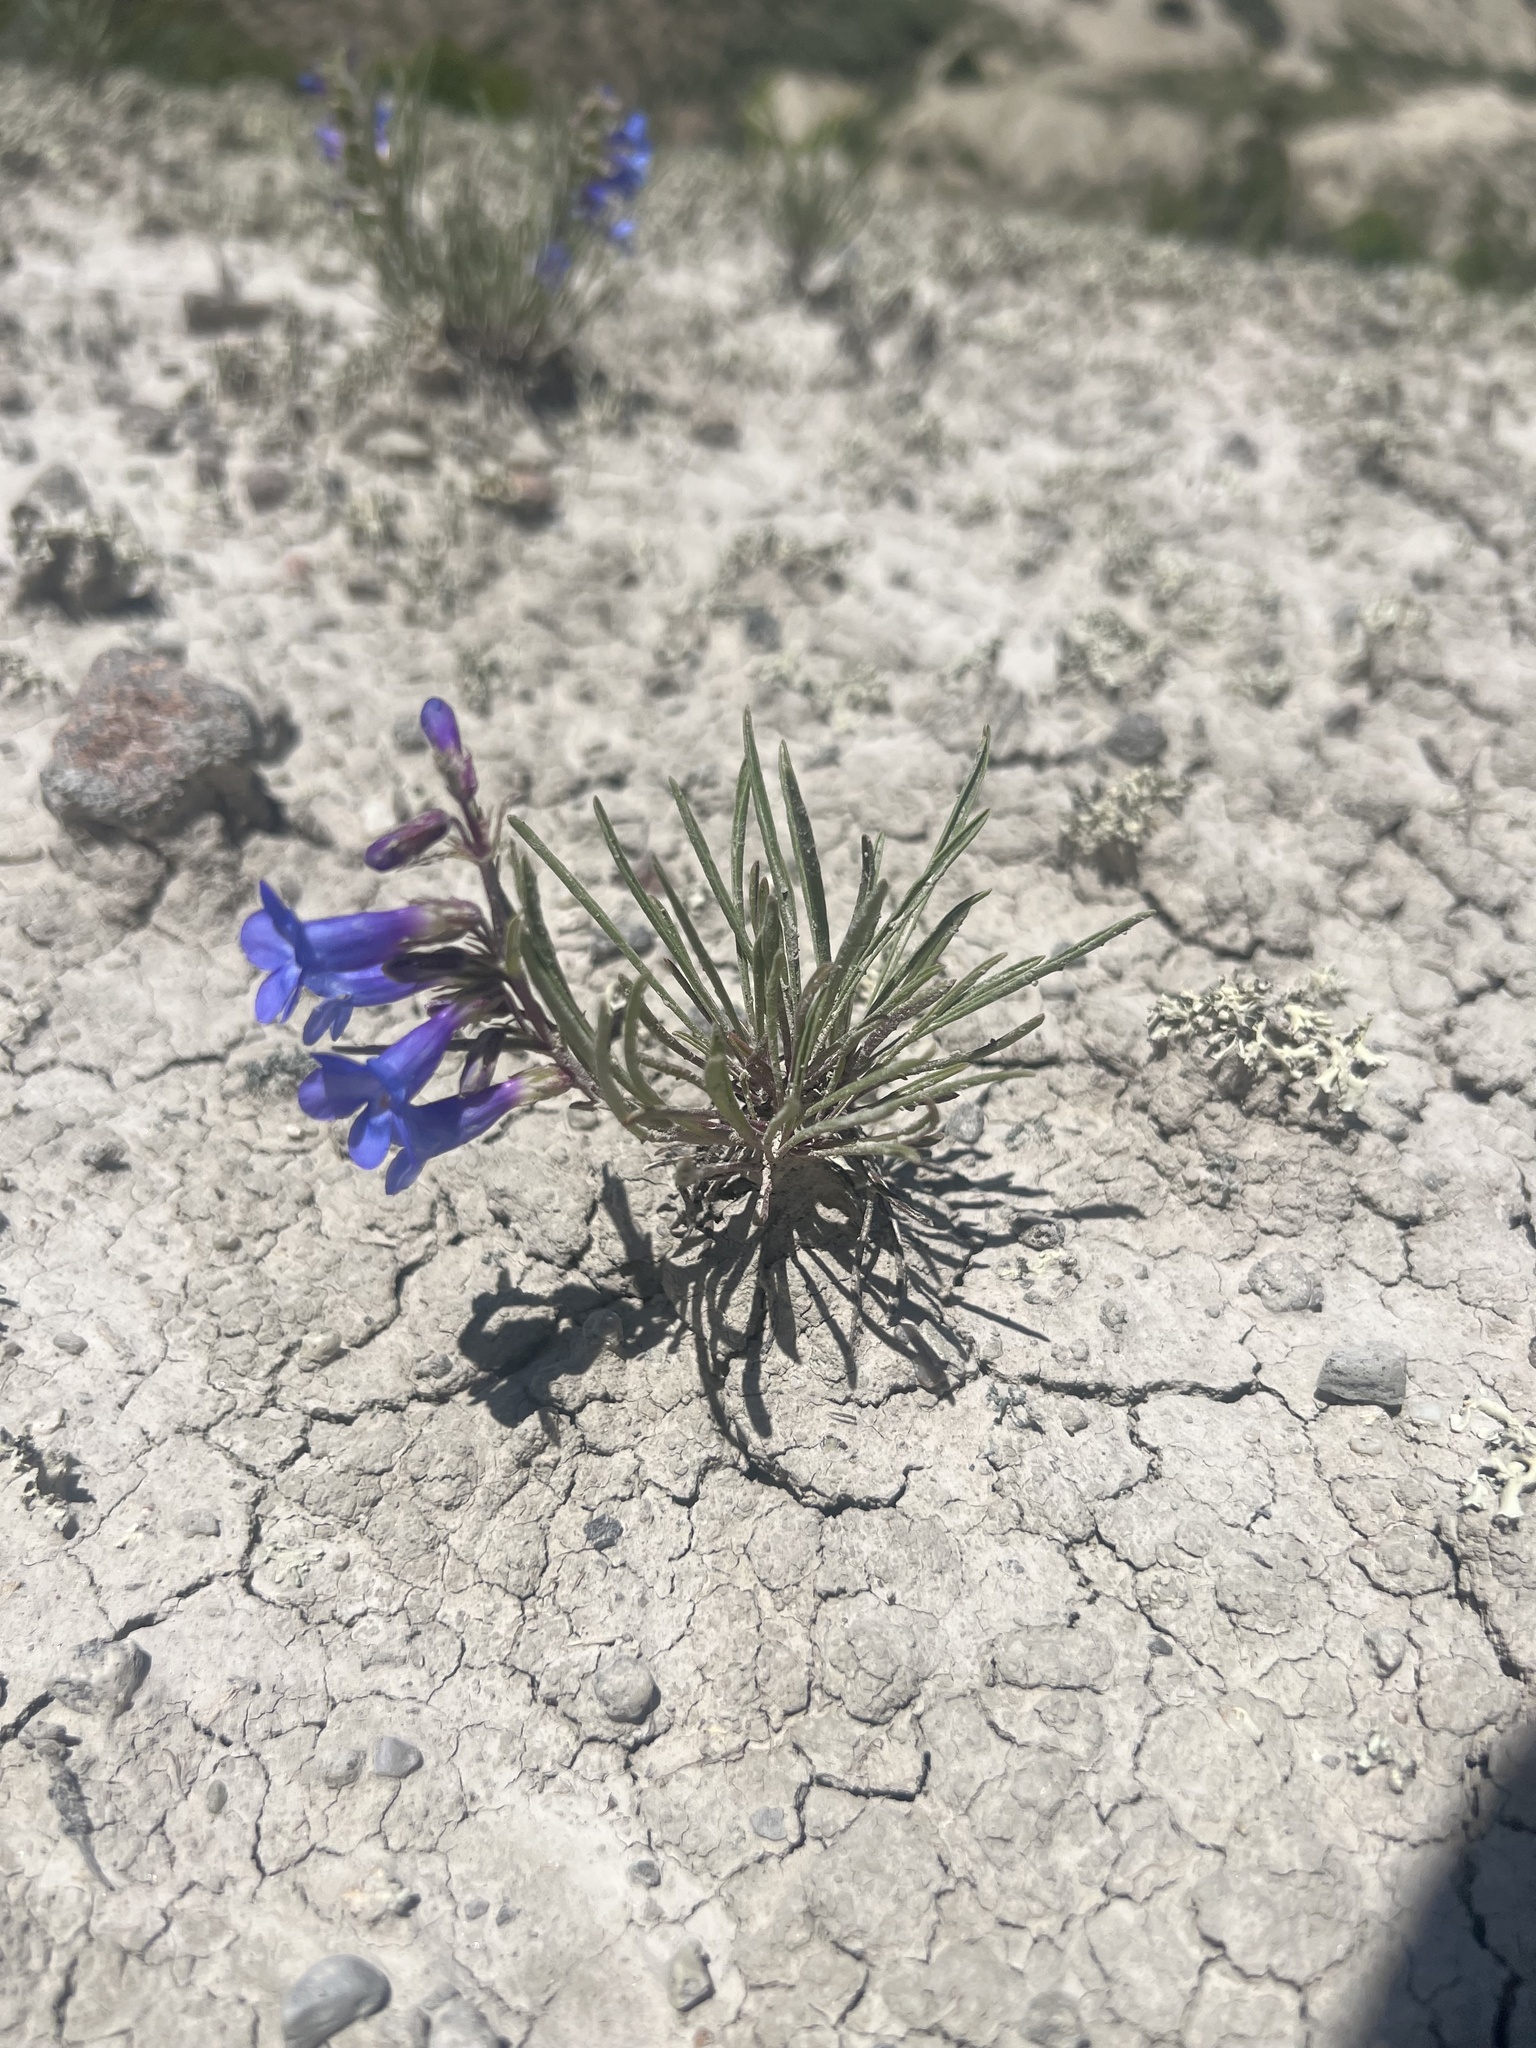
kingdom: Plantae
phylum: Tracheophyta
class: Magnoliopsida
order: Lamiales
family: Plantaginaceae
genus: Penstemon
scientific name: Penstemon penlandii
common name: Penland's beardtongue
